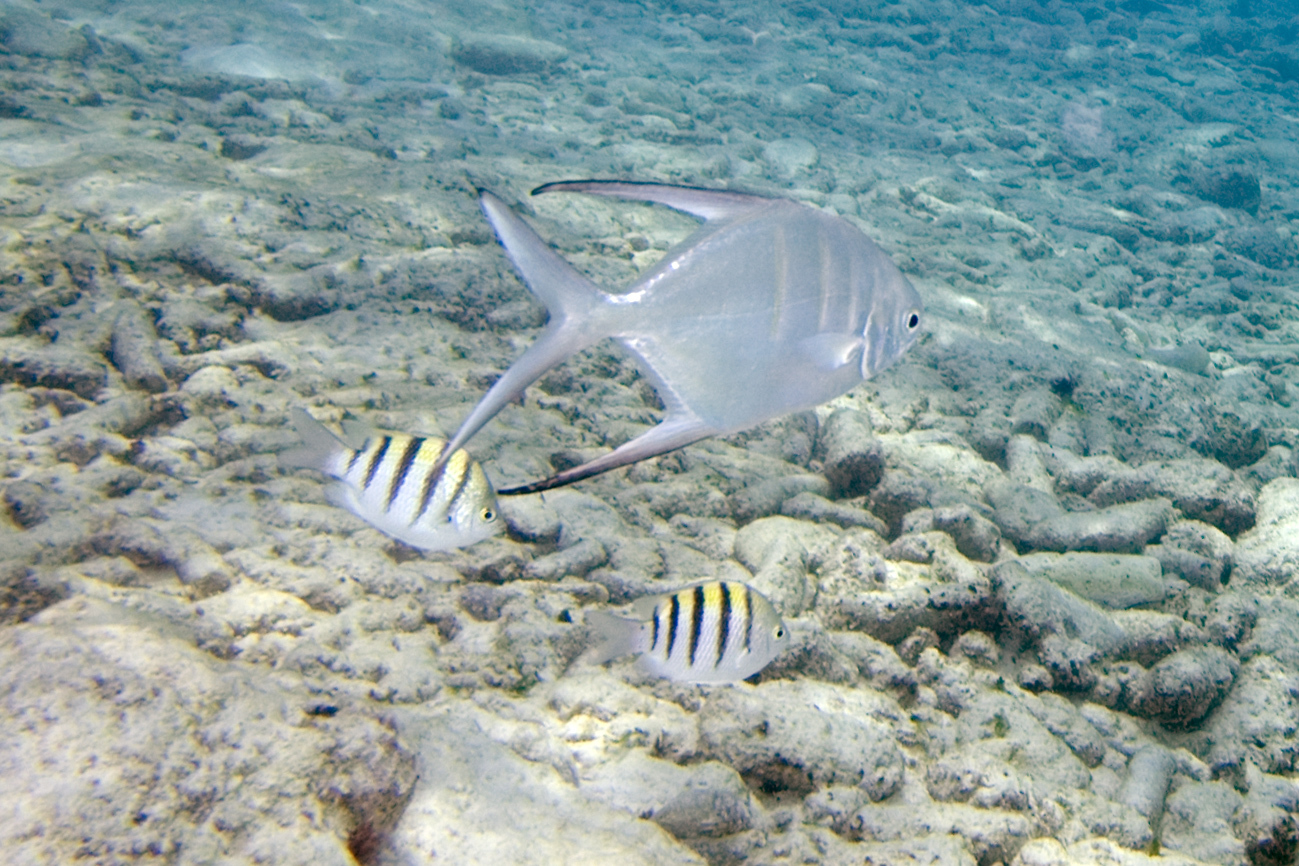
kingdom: Animalia
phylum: Chordata
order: Perciformes
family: Pomacentridae
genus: Abudefduf
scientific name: Abudefduf saxatilis
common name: Sergeant major
